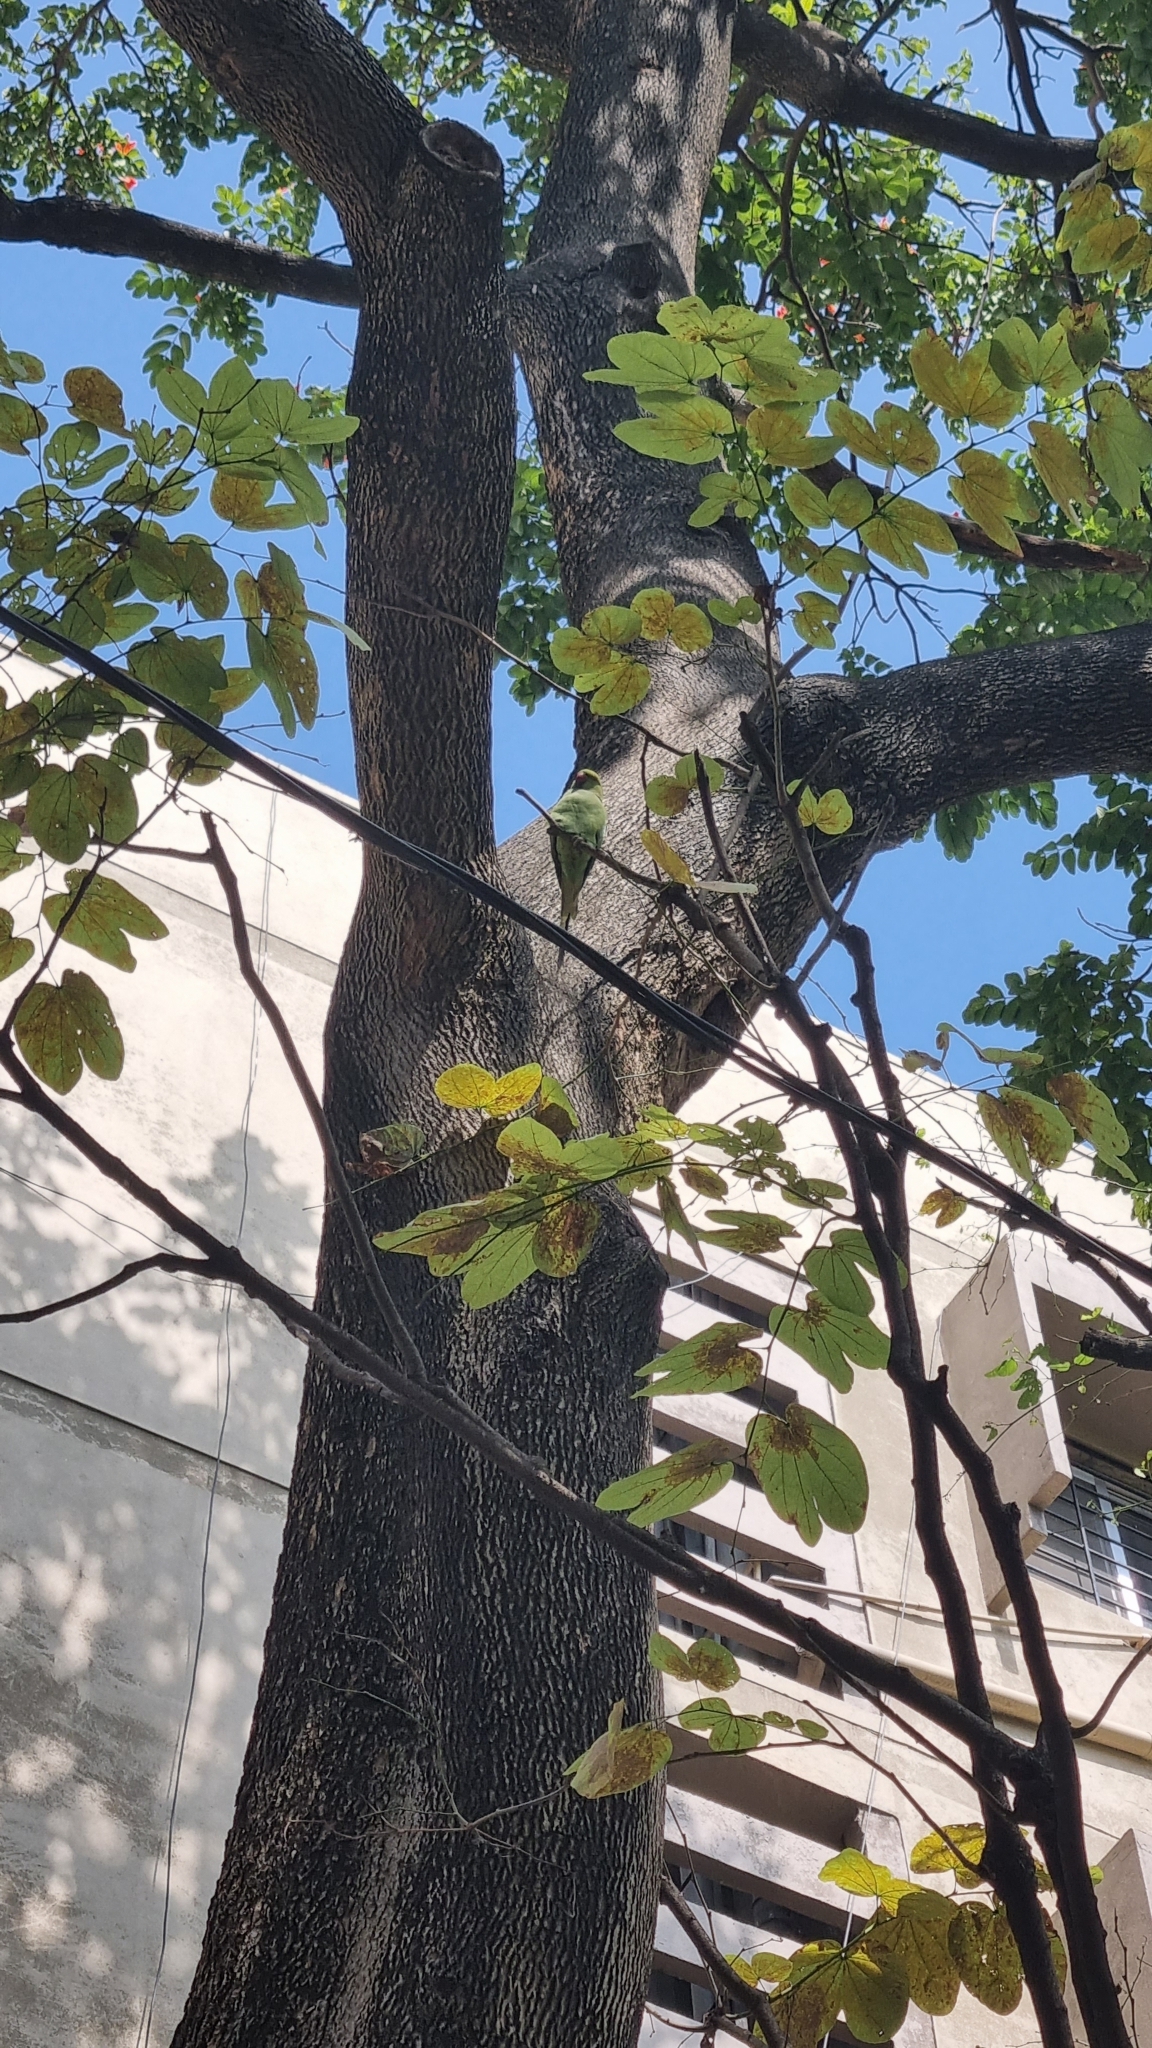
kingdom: Animalia
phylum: Chordata
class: Aves
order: Psittaciformes
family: Psittacidae
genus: Psittacula
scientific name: Psittacula krameri
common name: Rose-ringed parakeet
